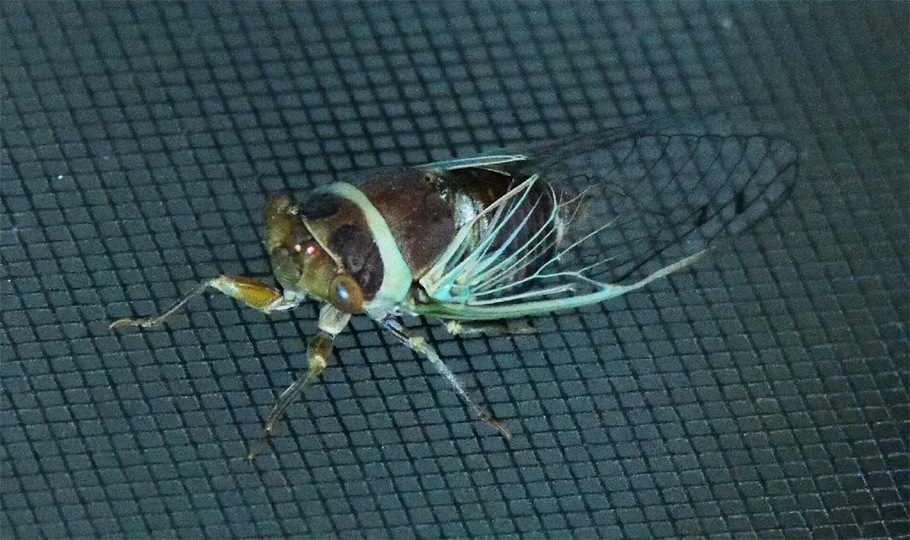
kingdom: Animalia
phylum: Arthropoda
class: Insecta
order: Hemiptera
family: Cicadidae
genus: Diceroprocta
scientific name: Diceroprocta apache
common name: Desert cicada
